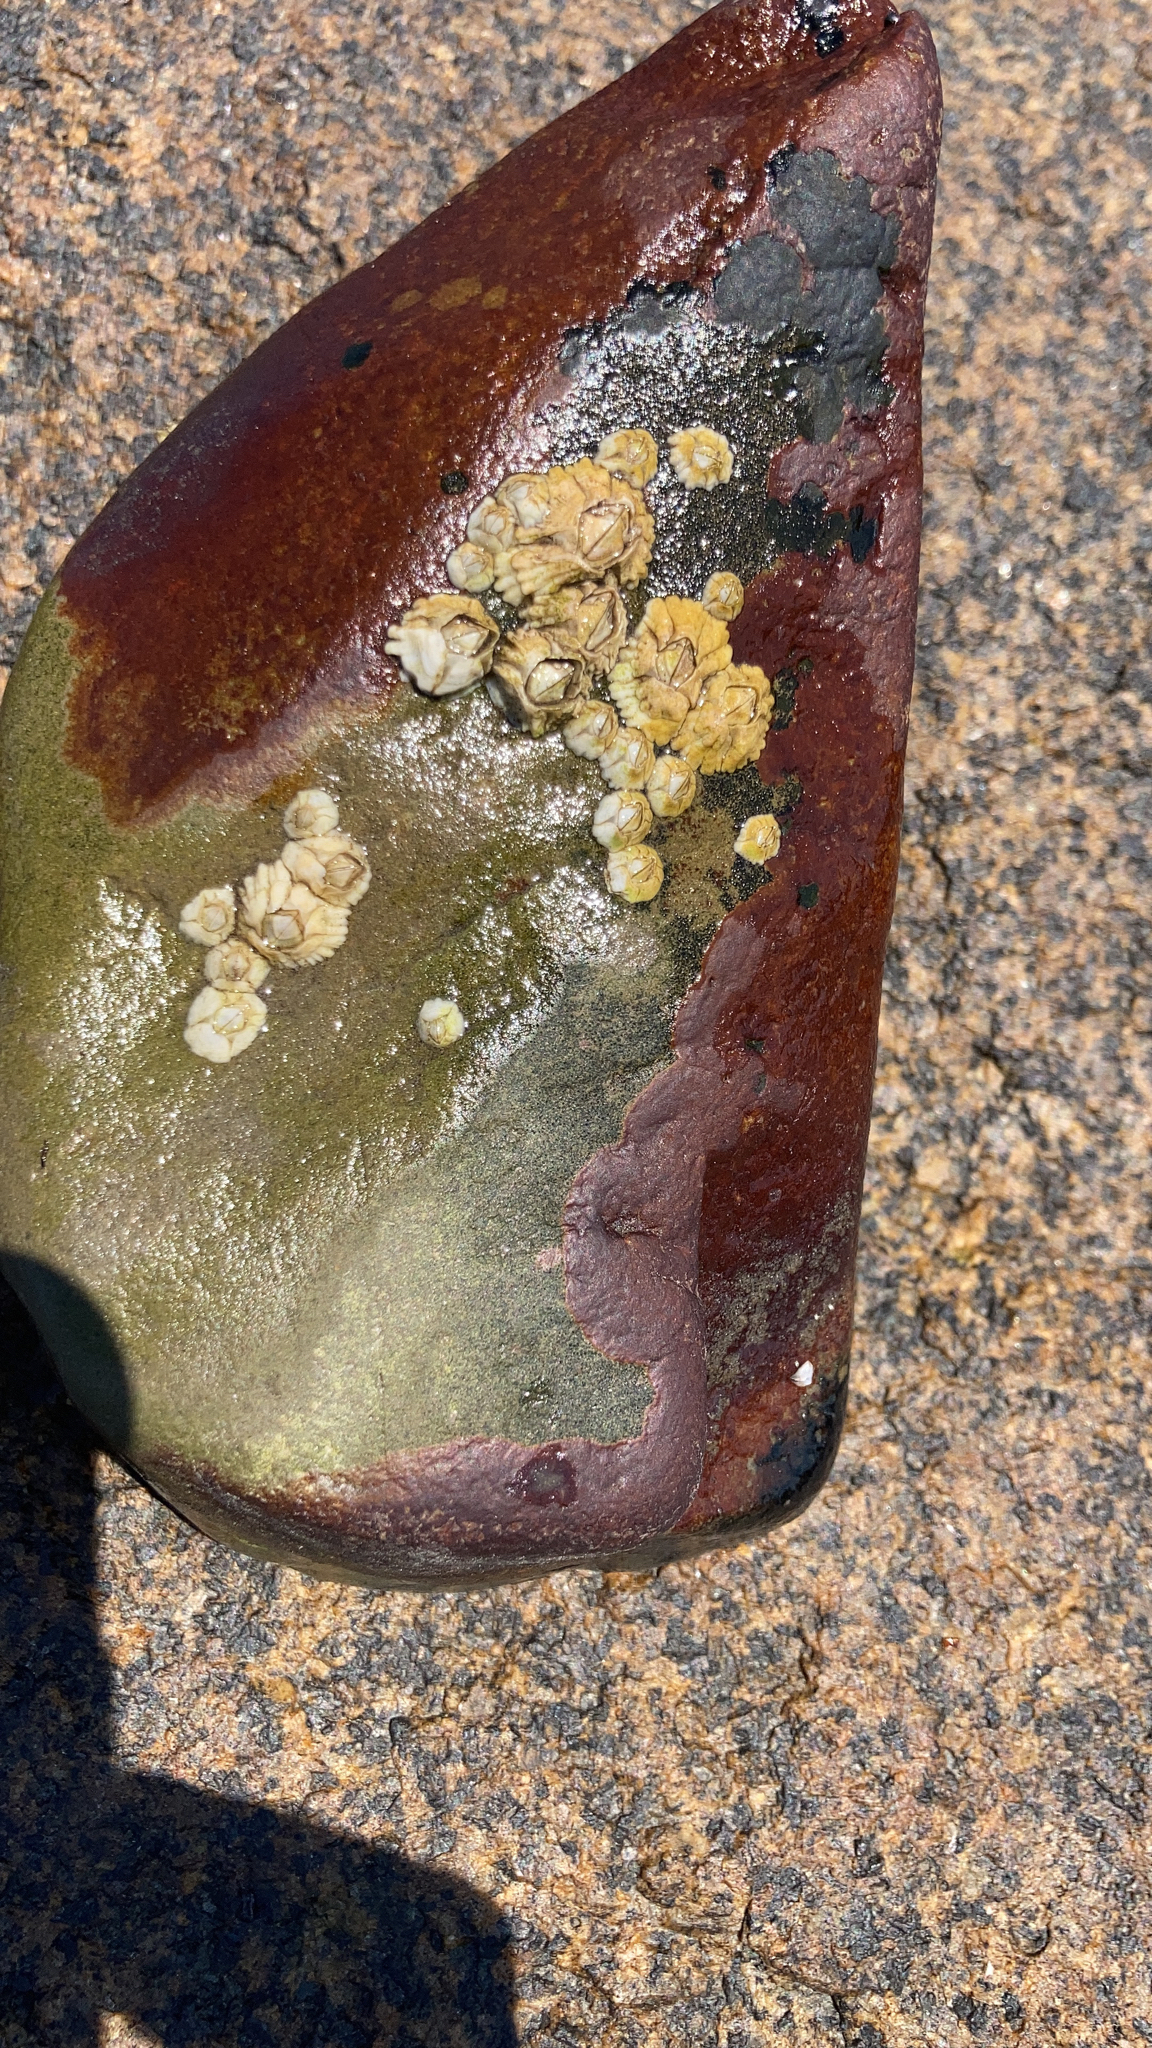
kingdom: Animalia
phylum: Arthropoda
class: Maxillopoda
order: Sessilia
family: Archaeobalanidae
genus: Semibalanus
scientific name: Semibalanus balanoides
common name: Acorn barnacle
